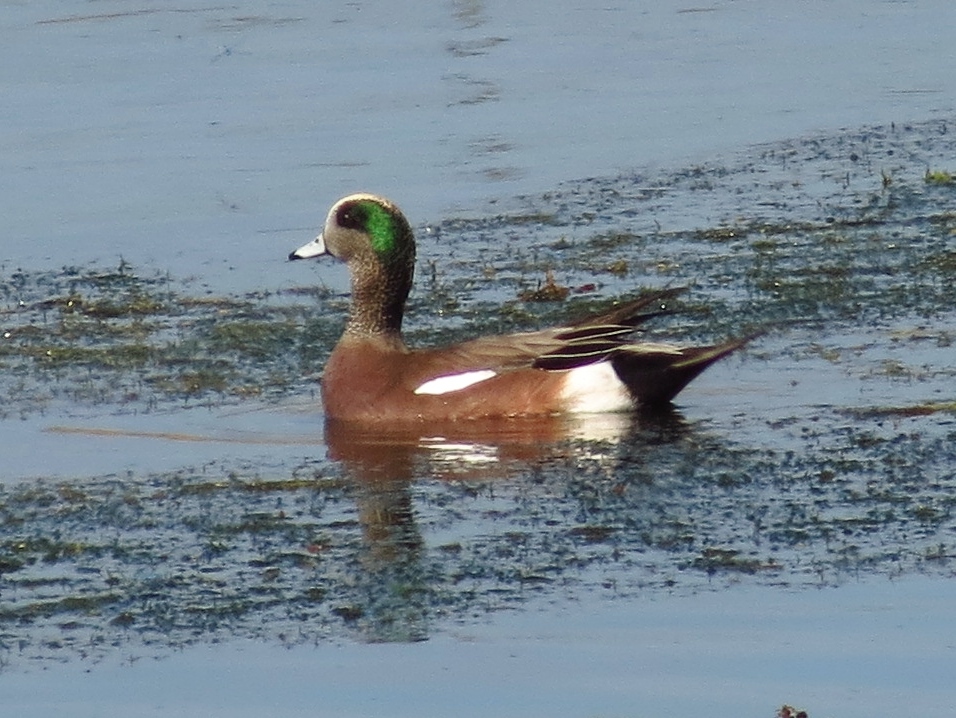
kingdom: Animalia
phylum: Chordata
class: Aves
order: Anseriformes
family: Anatidae
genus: Mareca
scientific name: Mareca americana
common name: American wigeon
